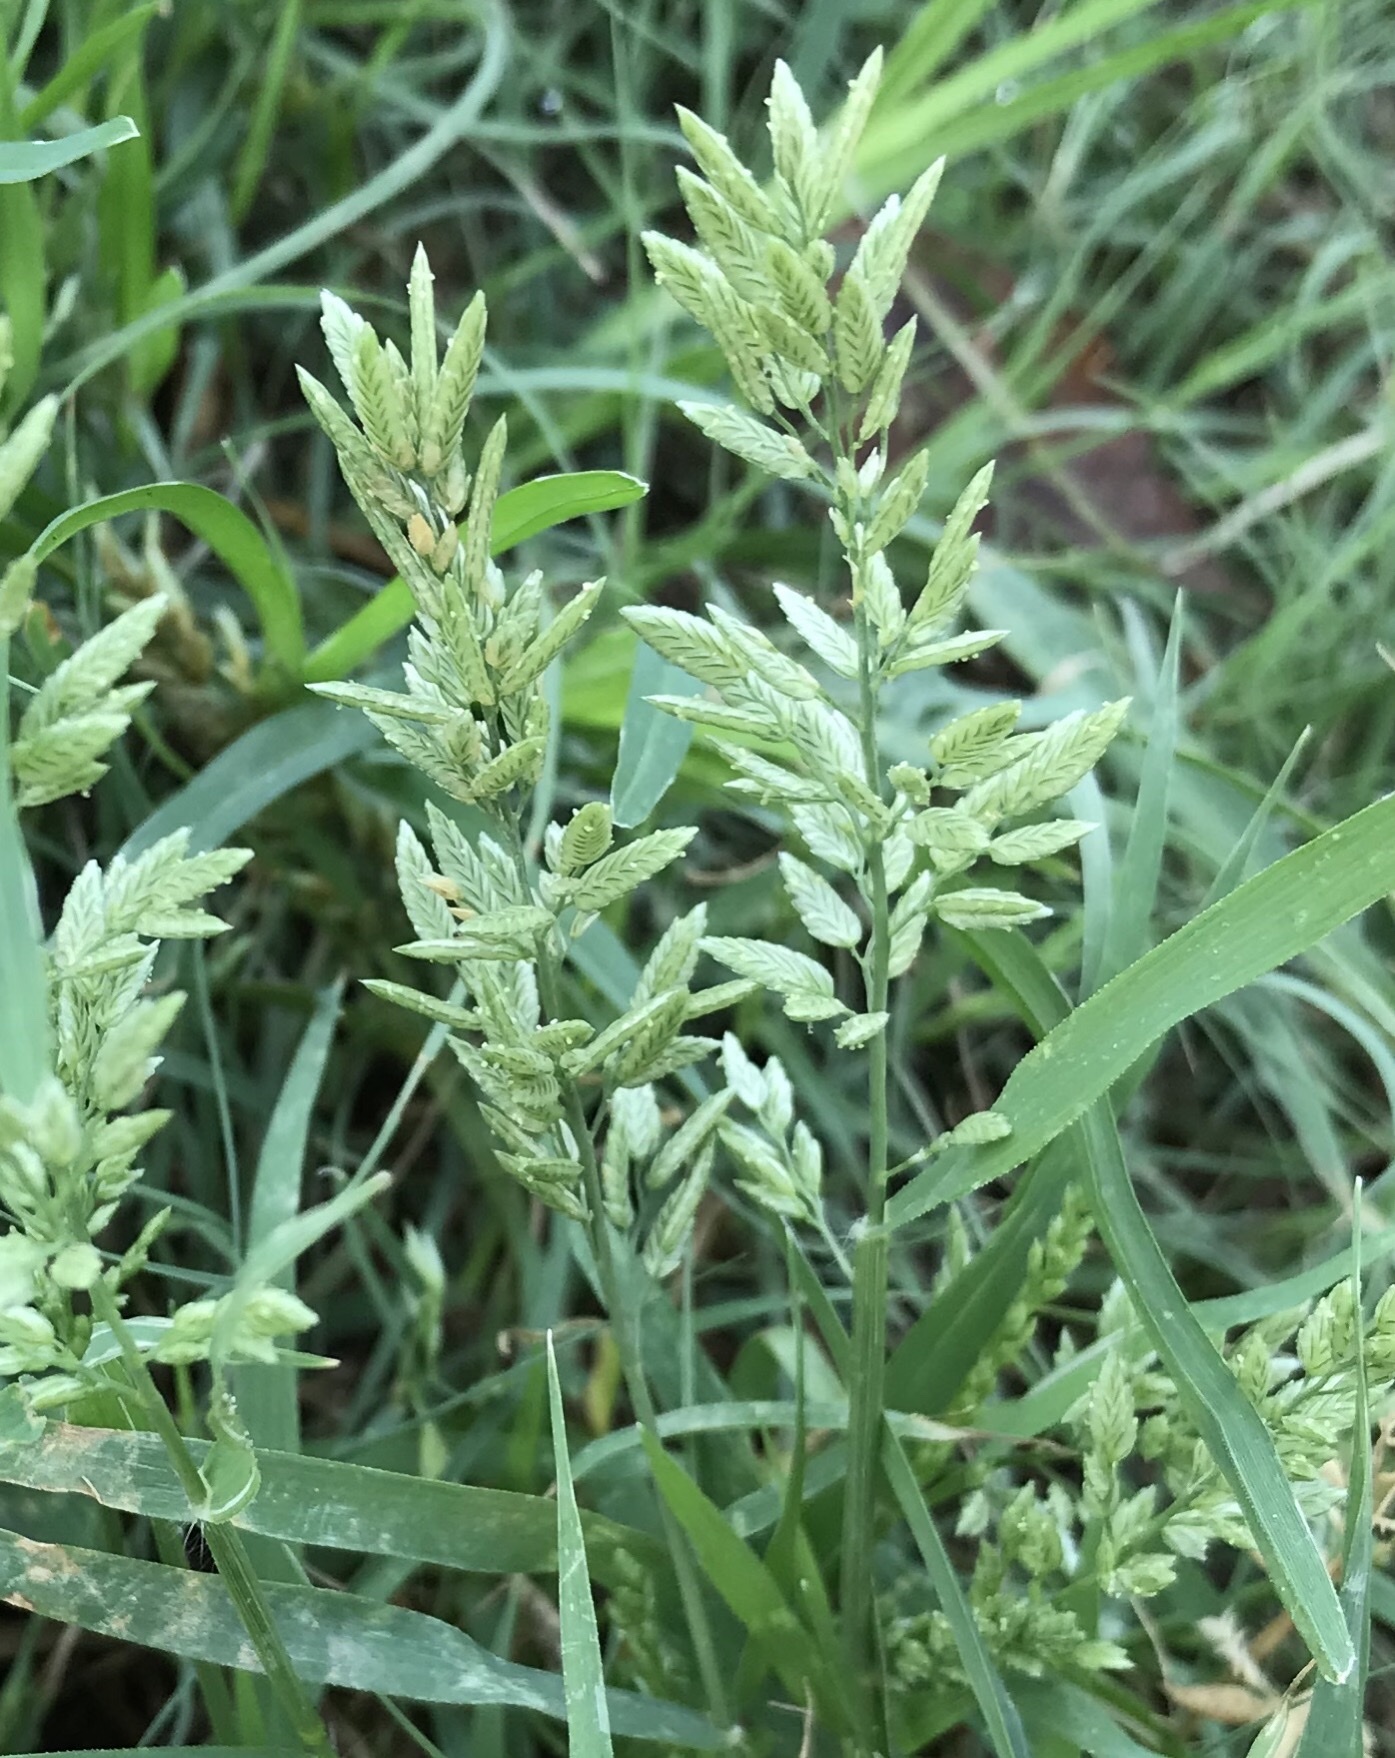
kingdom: Plantae
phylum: Tracheophyta
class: Liliopsida
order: Poales
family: Poaceae
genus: Eragrostis
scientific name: Eragrostis cilianensis
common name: Stinkgrass
